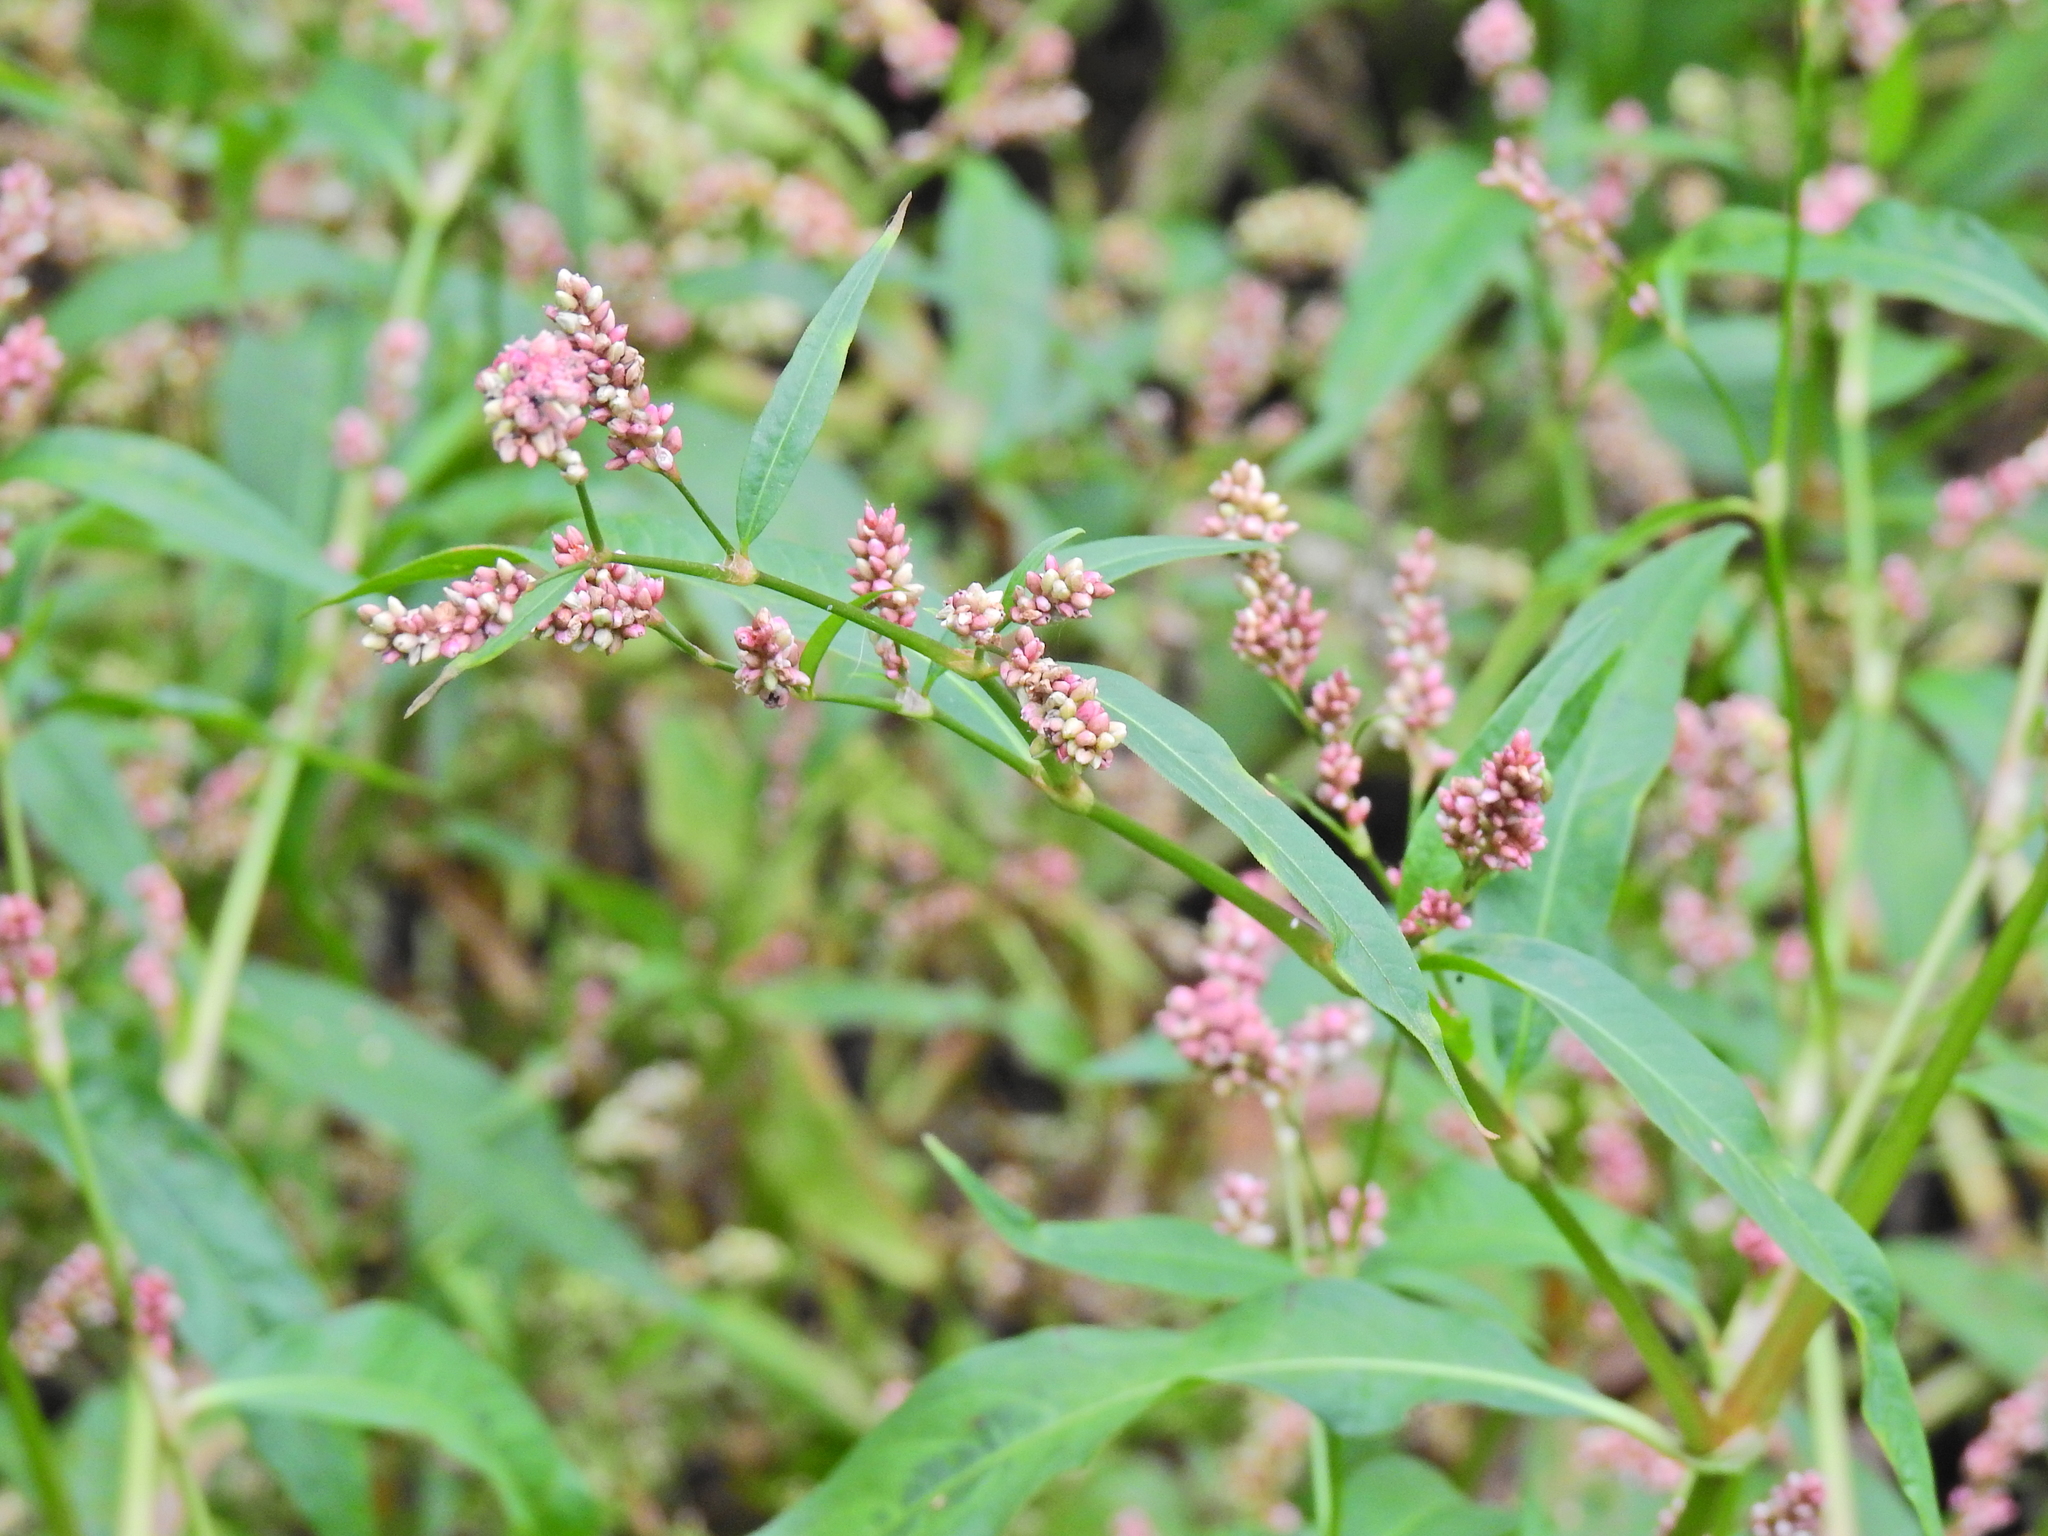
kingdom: Plantae
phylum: Tracheophyta
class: Magnoliopsida
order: Caryophyllales
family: Polygonaceae
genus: Persicaria
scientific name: Persicaria maculosa
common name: Redshank
